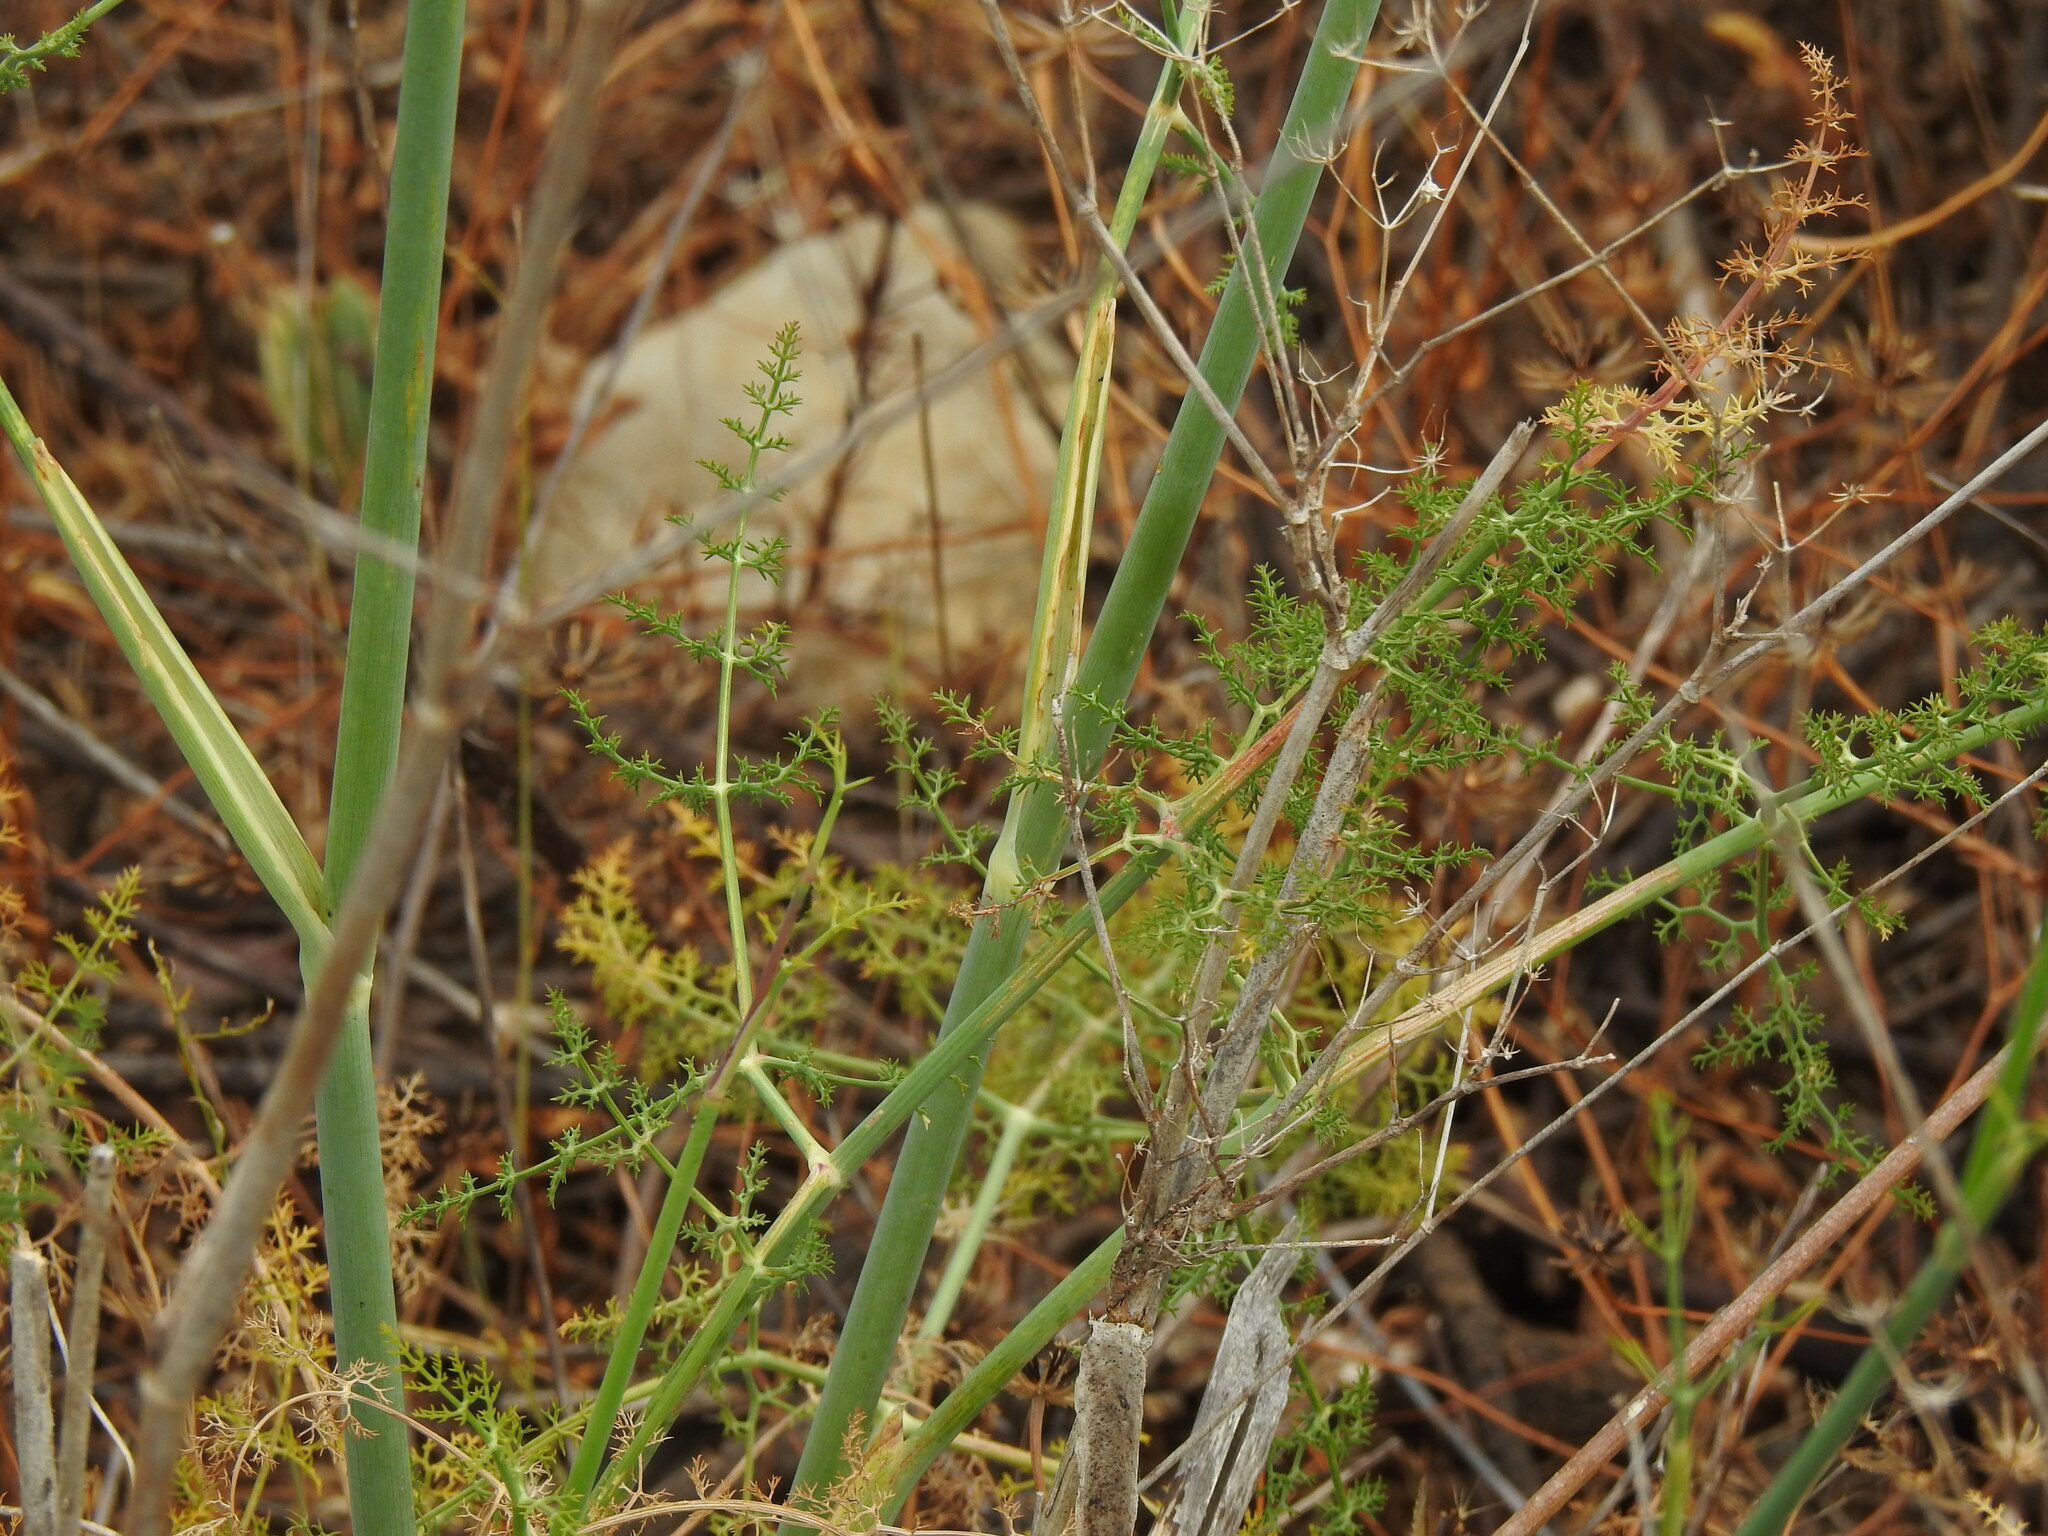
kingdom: Plantae
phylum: Tracheophyta
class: Magnoliopsida
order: Apiales
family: Apiaceae
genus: Foeniculum
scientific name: Foeniculum vulgare
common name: Fennel
